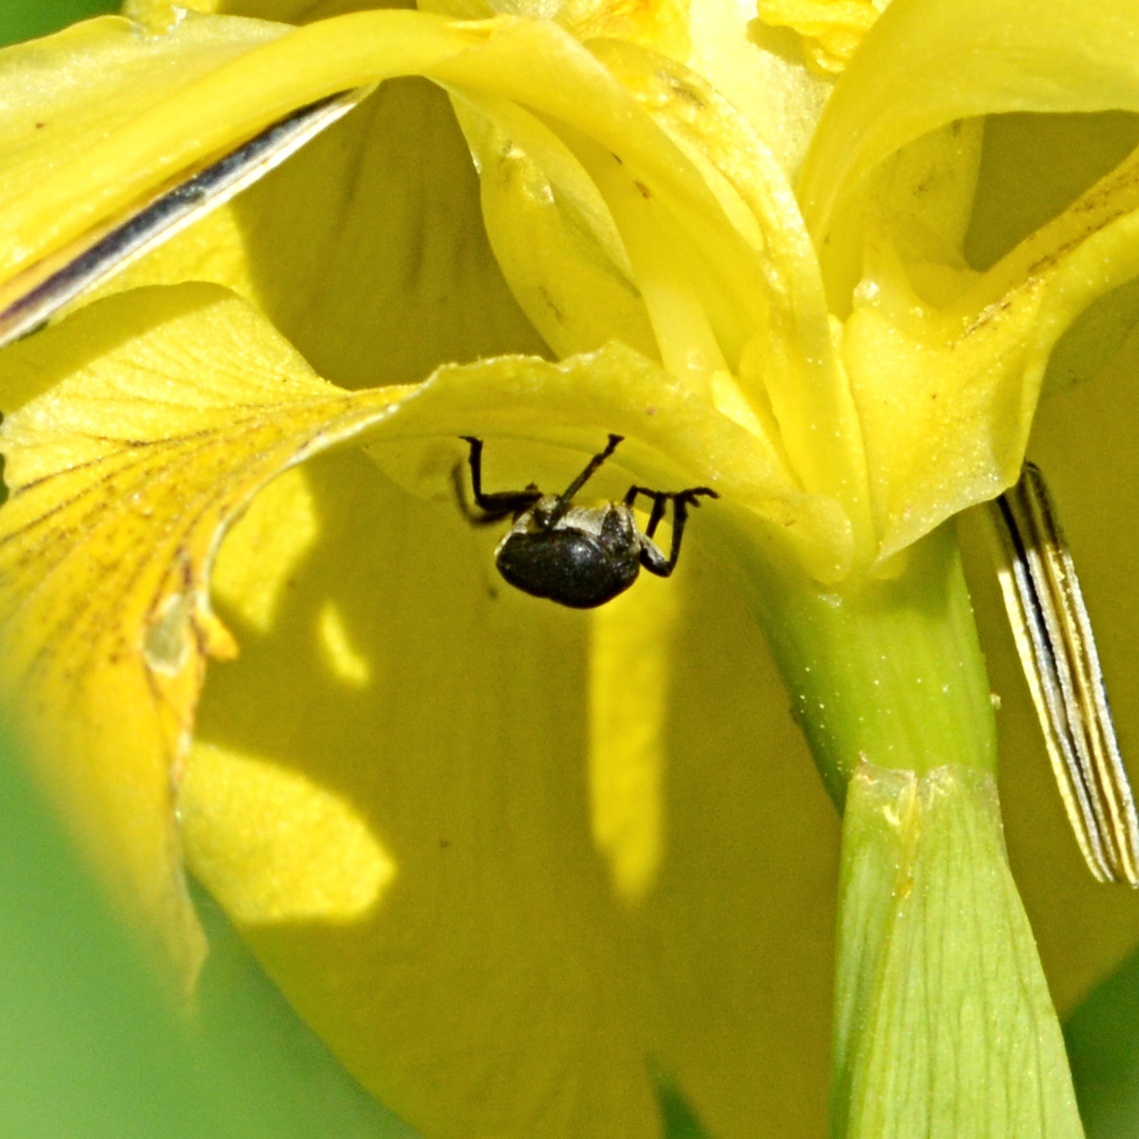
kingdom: Animalia
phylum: Arthropoda
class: Insecta
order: Coleoptera
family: Curculionidae
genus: Mononychus
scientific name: Mononychus punctumalbum
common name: Iris weevil
